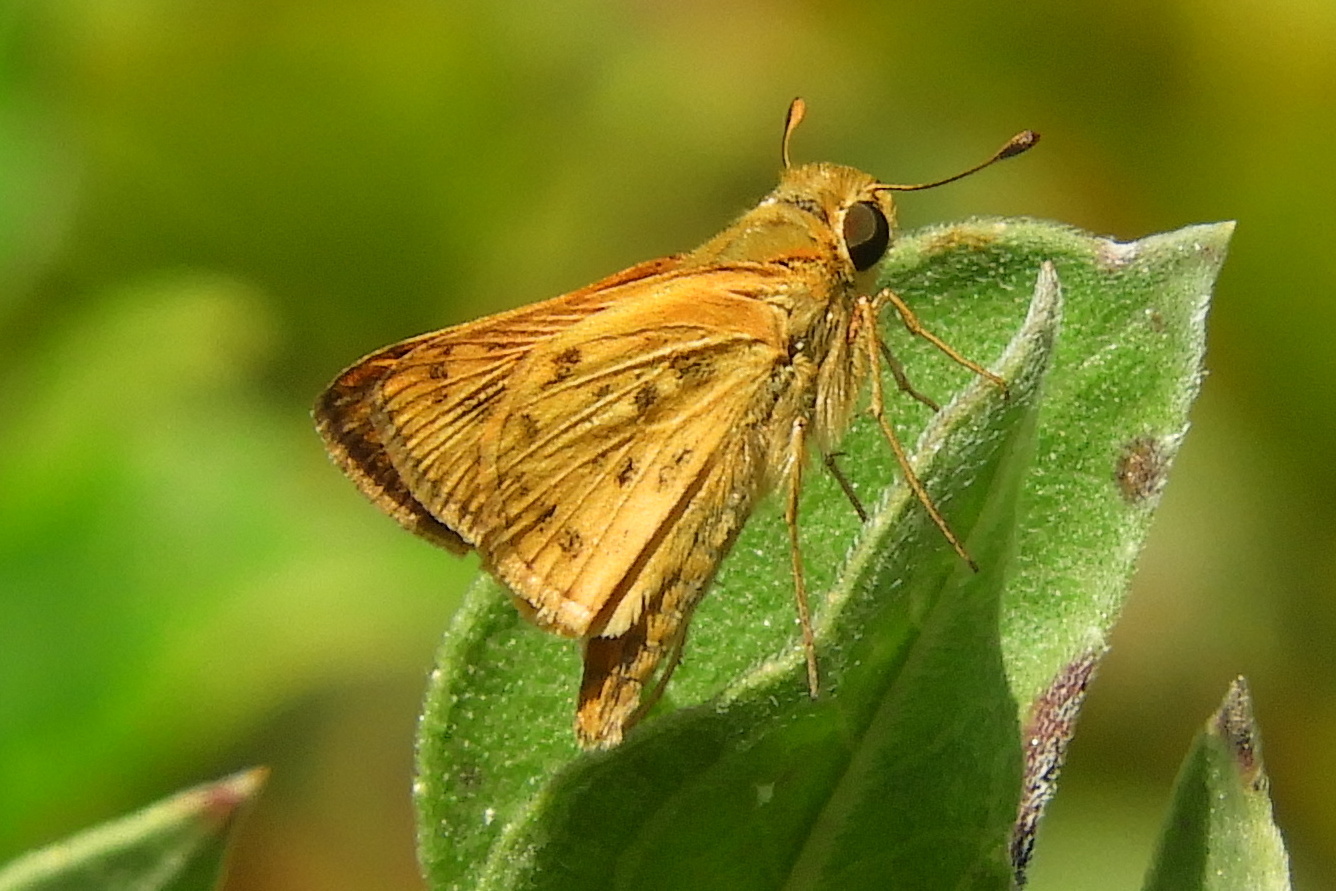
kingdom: Animalia
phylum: Arthropoda
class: Insecta
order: Lepidoptera
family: Hesperiidae
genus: Hylephila
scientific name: Hylephila phyleus
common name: Fiery skipper
